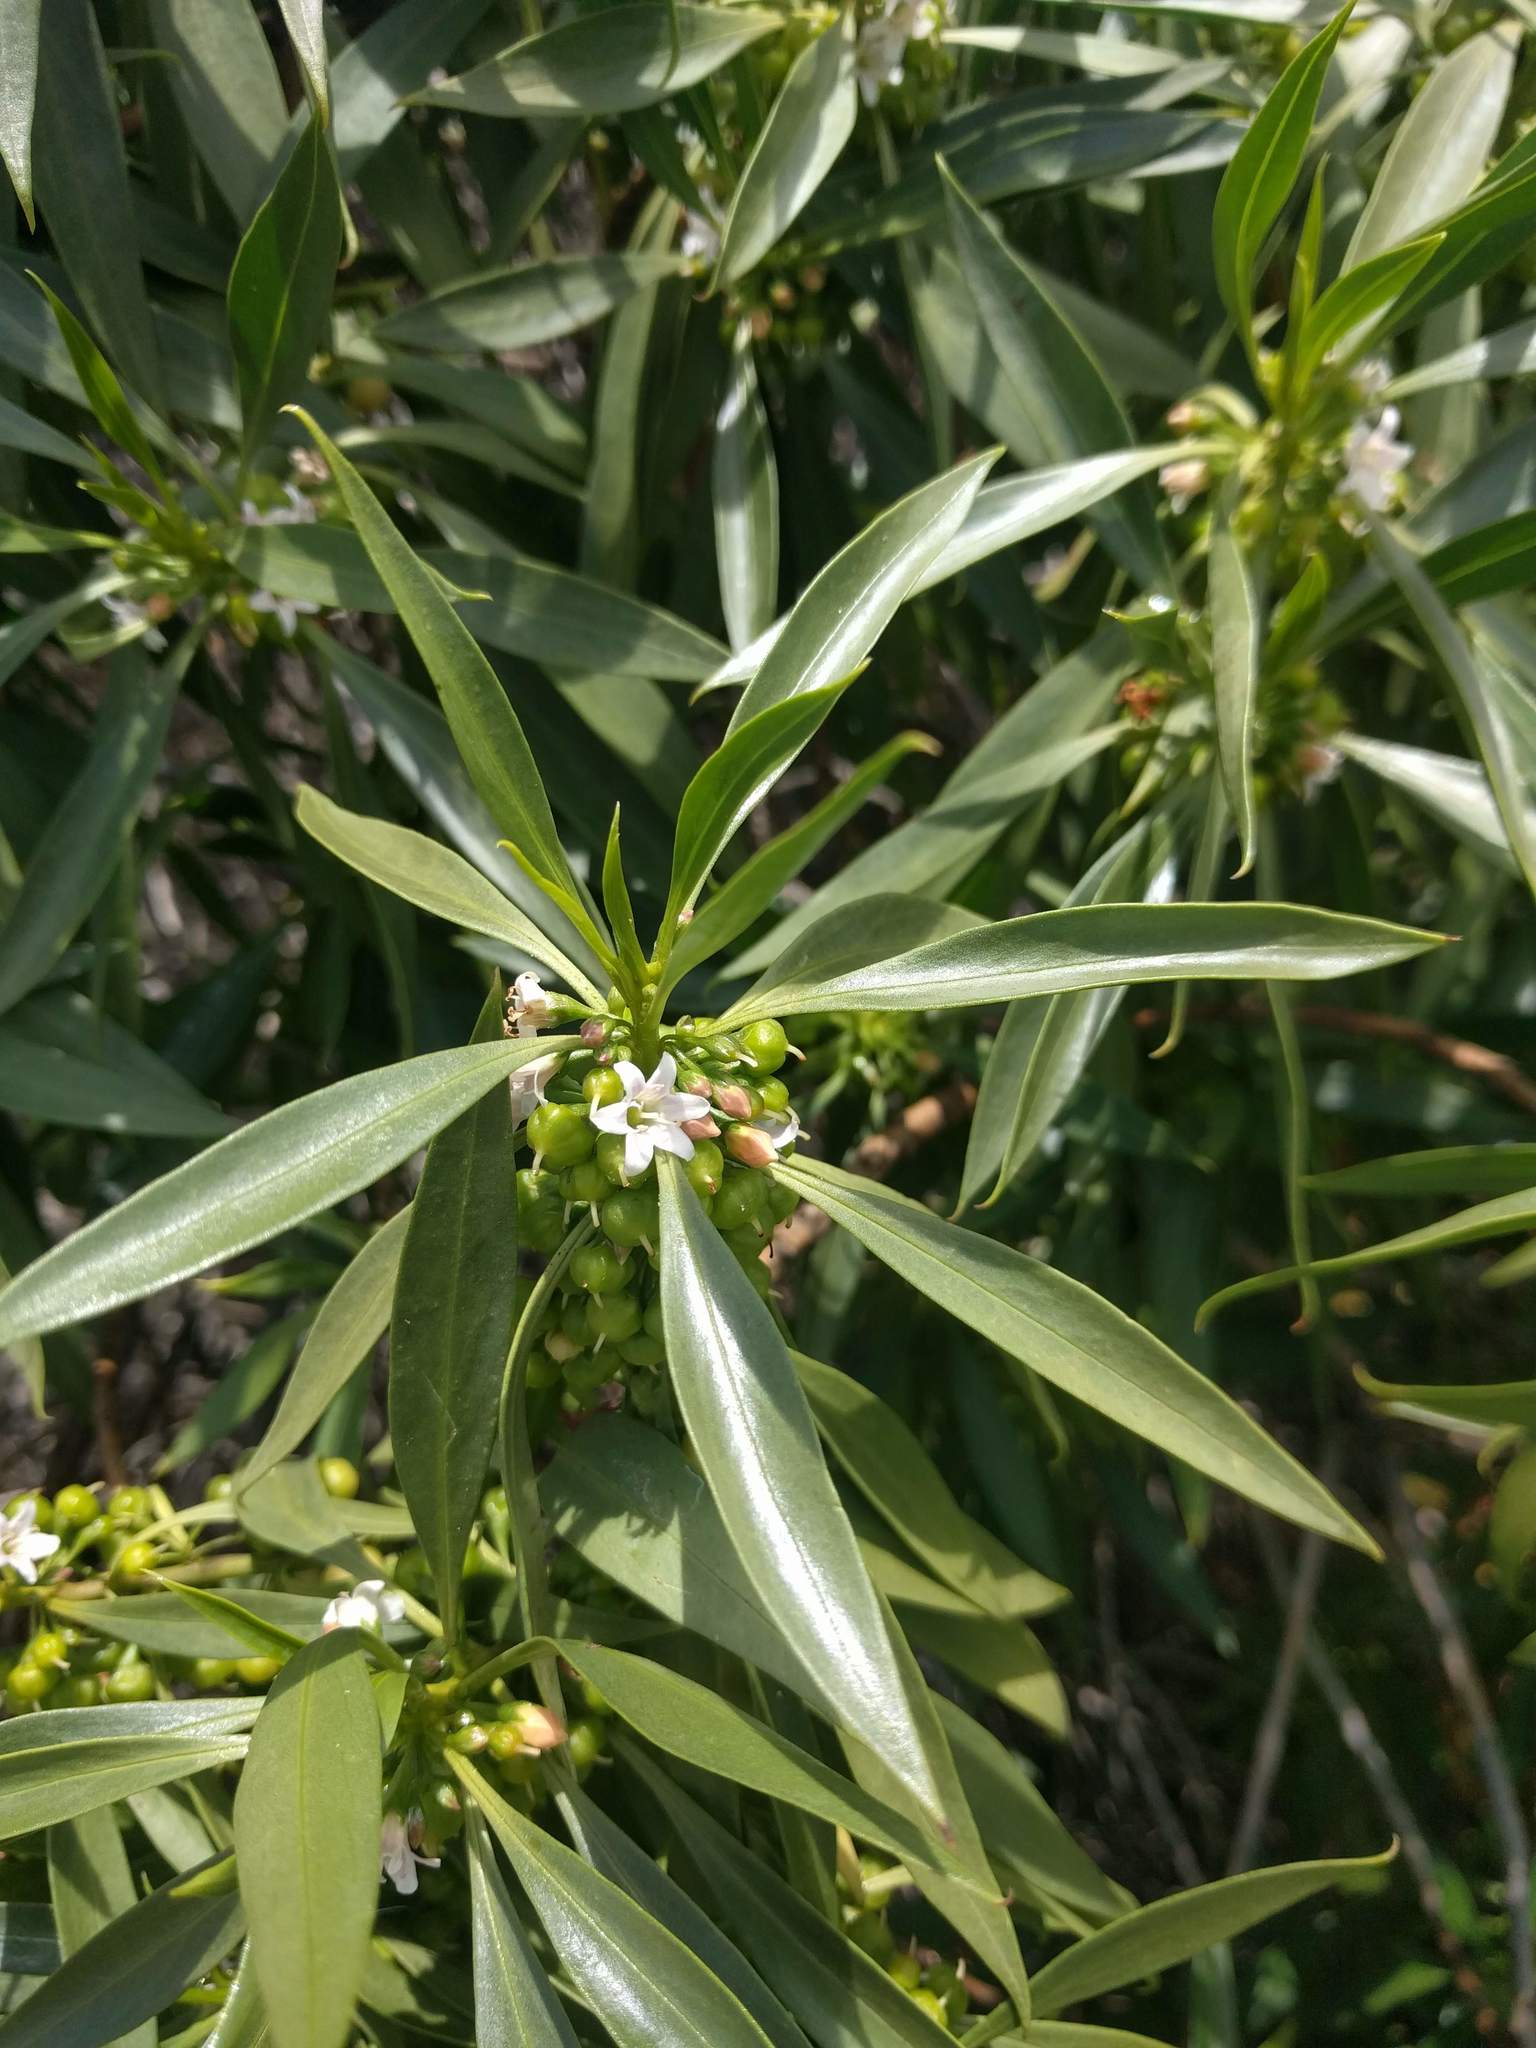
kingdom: Plantae
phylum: Tracheophyta
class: Magnoliopsida
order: Lamiales
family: Scrophulariaceae
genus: Myoporum
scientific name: Myoporum sandwicense
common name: Bastard-sandalwood
